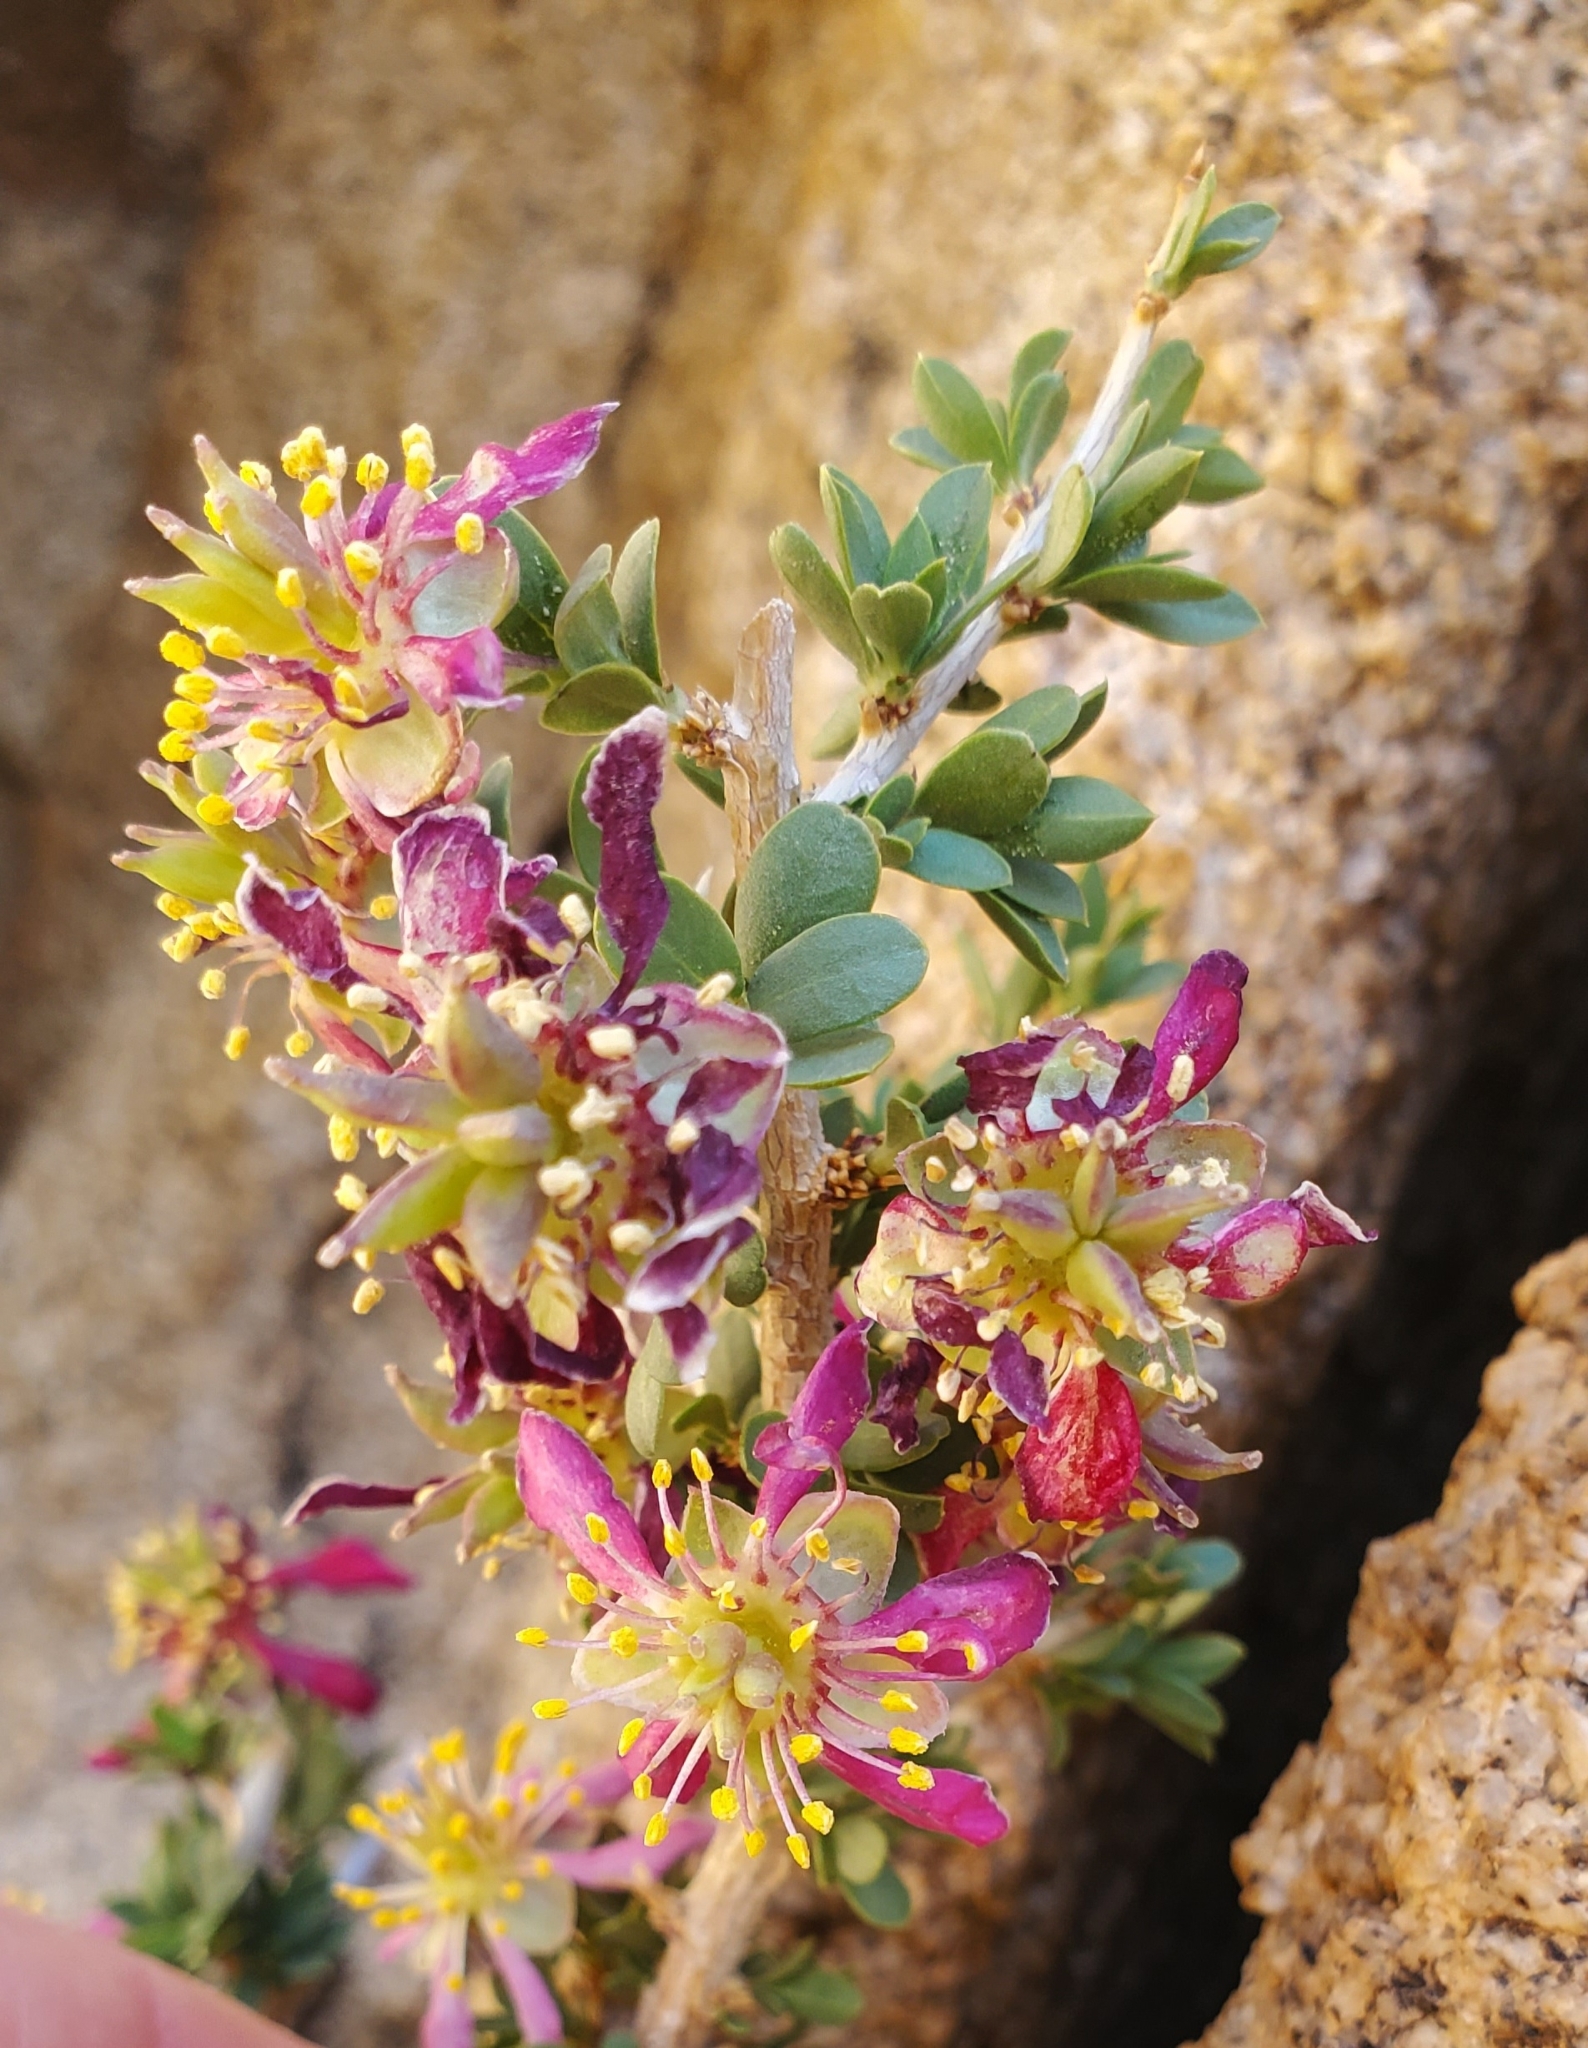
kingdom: Plantae
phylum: Tracheophyta
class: Magnoliopsida
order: Crossosomatales
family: Crossosomataceae
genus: Crossosoma
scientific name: Crossosoma bigelovii
